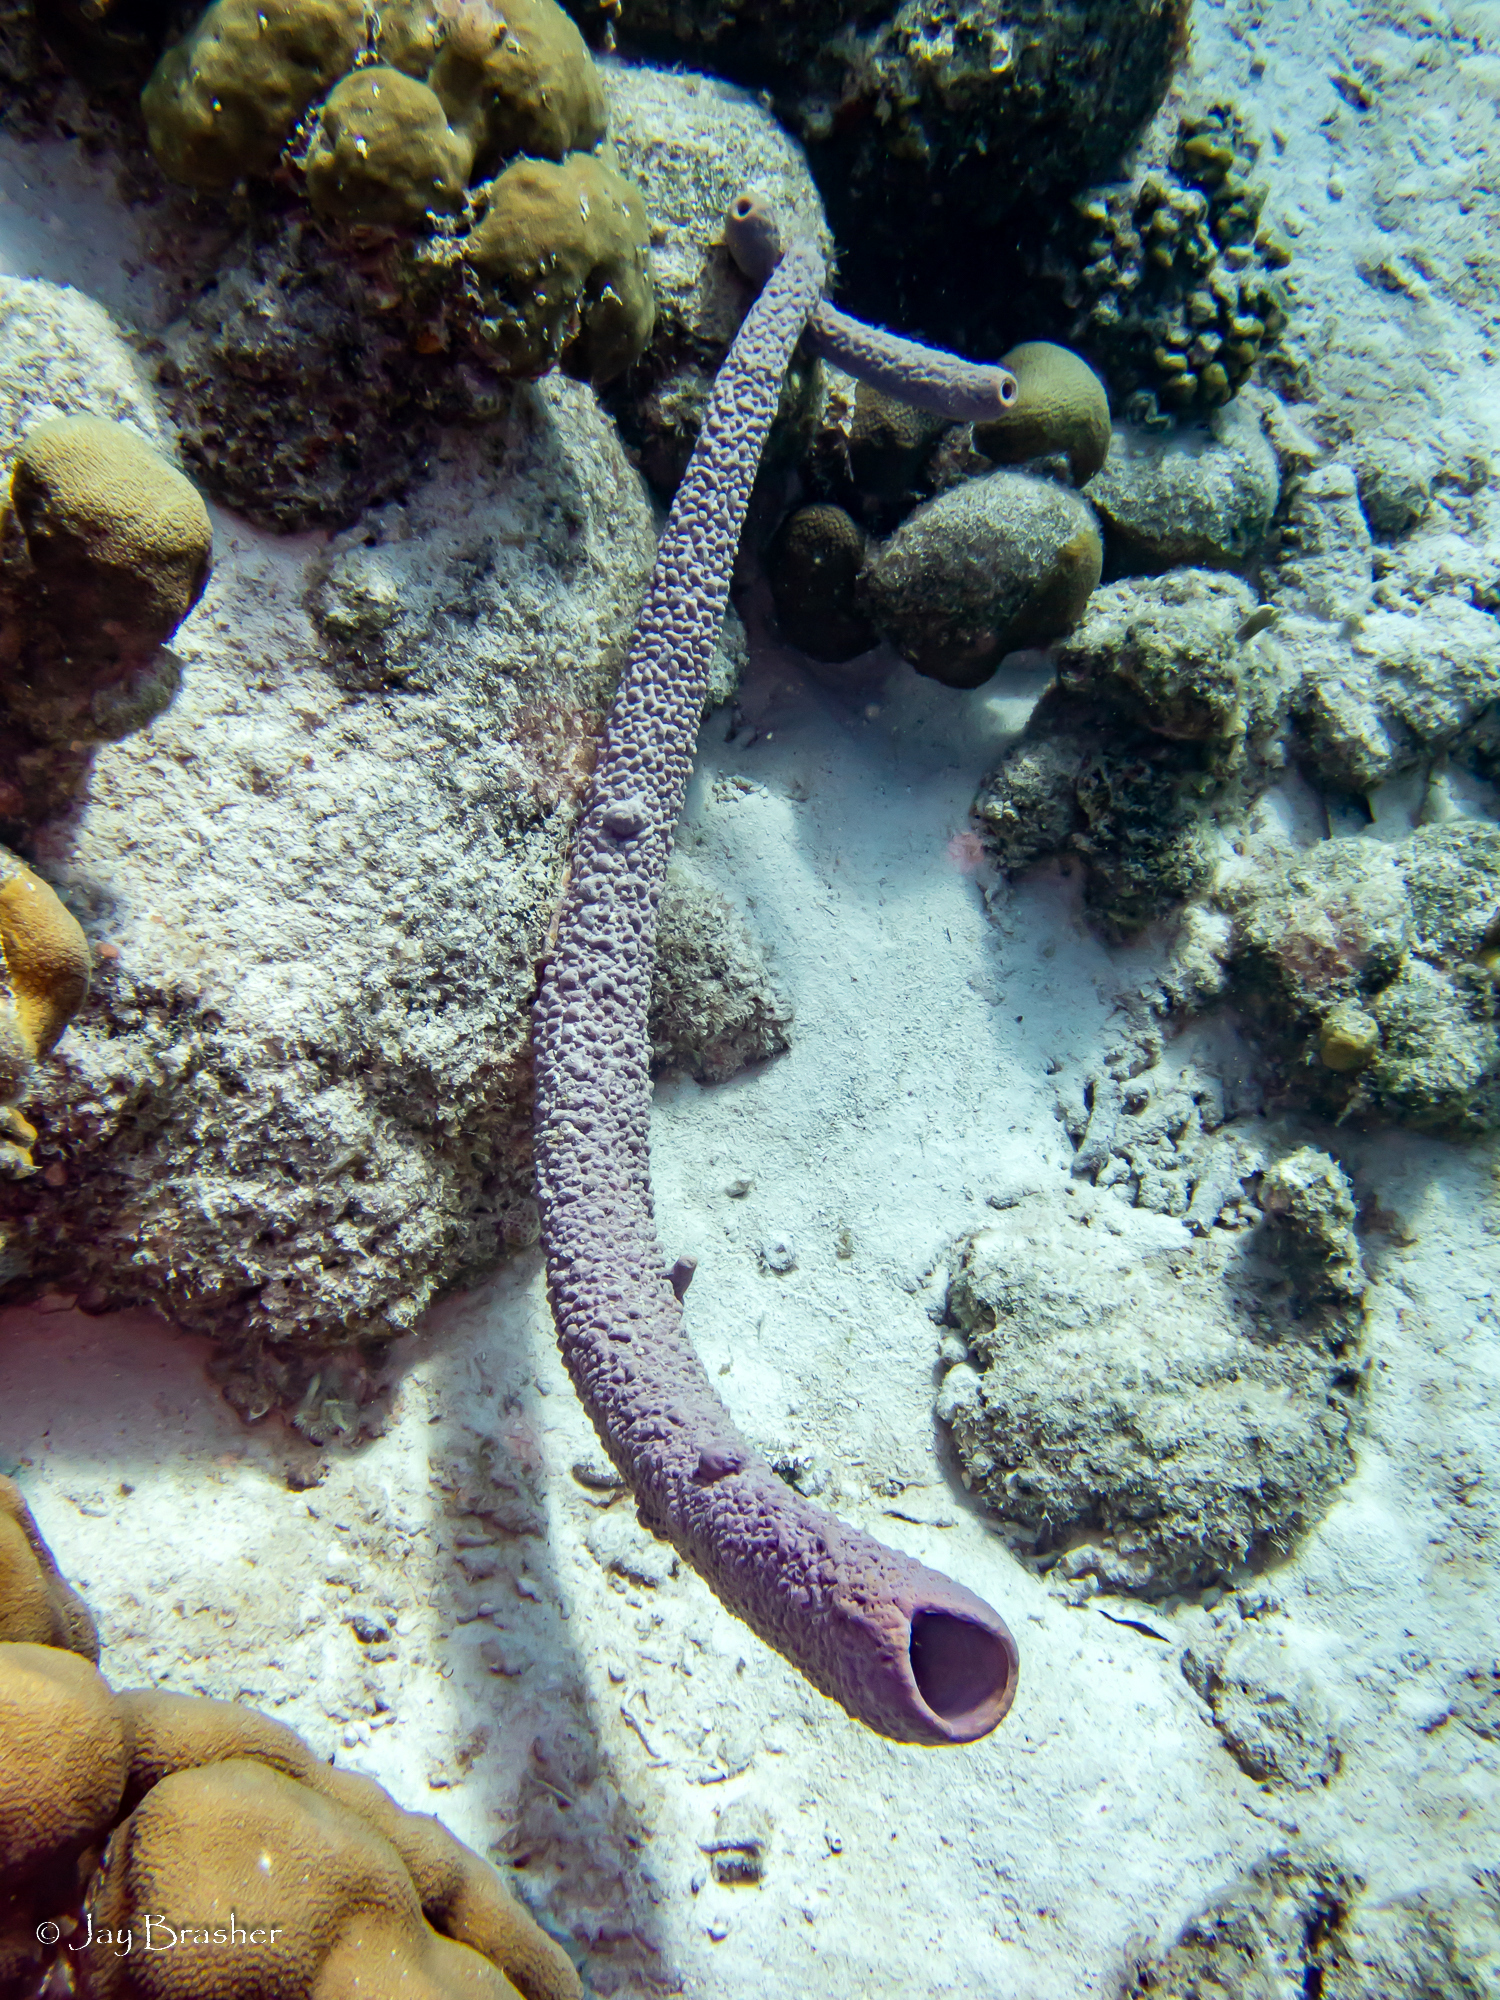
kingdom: Animalia
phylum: Porifera
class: Demospongiae
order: Verongiida
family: Aplysinidae
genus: Aplysina
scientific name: Aplysina archeri
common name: Stove-pipe sponge
